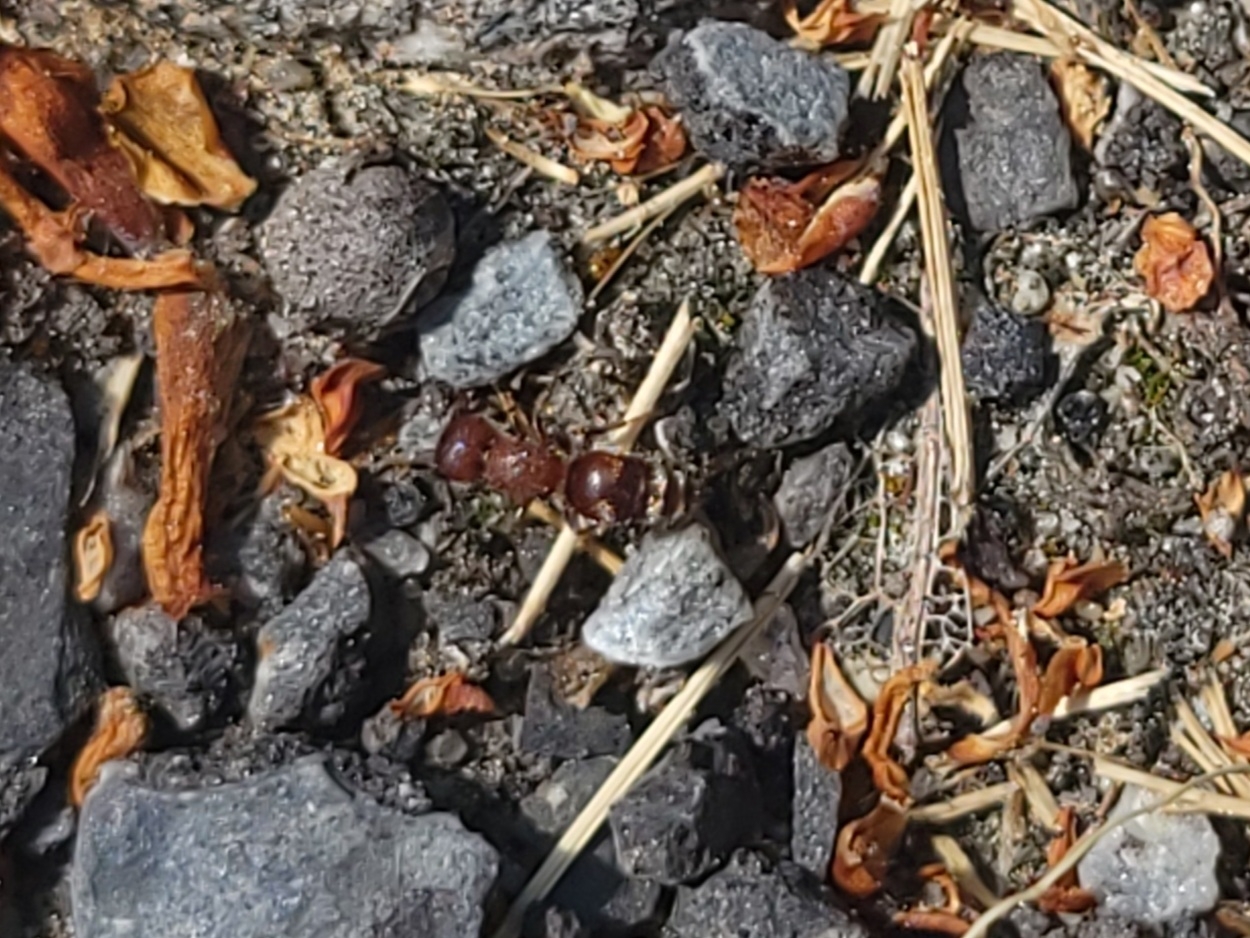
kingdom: Animalia
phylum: Arthropoda
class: Insecta
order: Hymenoptera
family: Mutillidae
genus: Pseudomethoca
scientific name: Pseudomethoca
